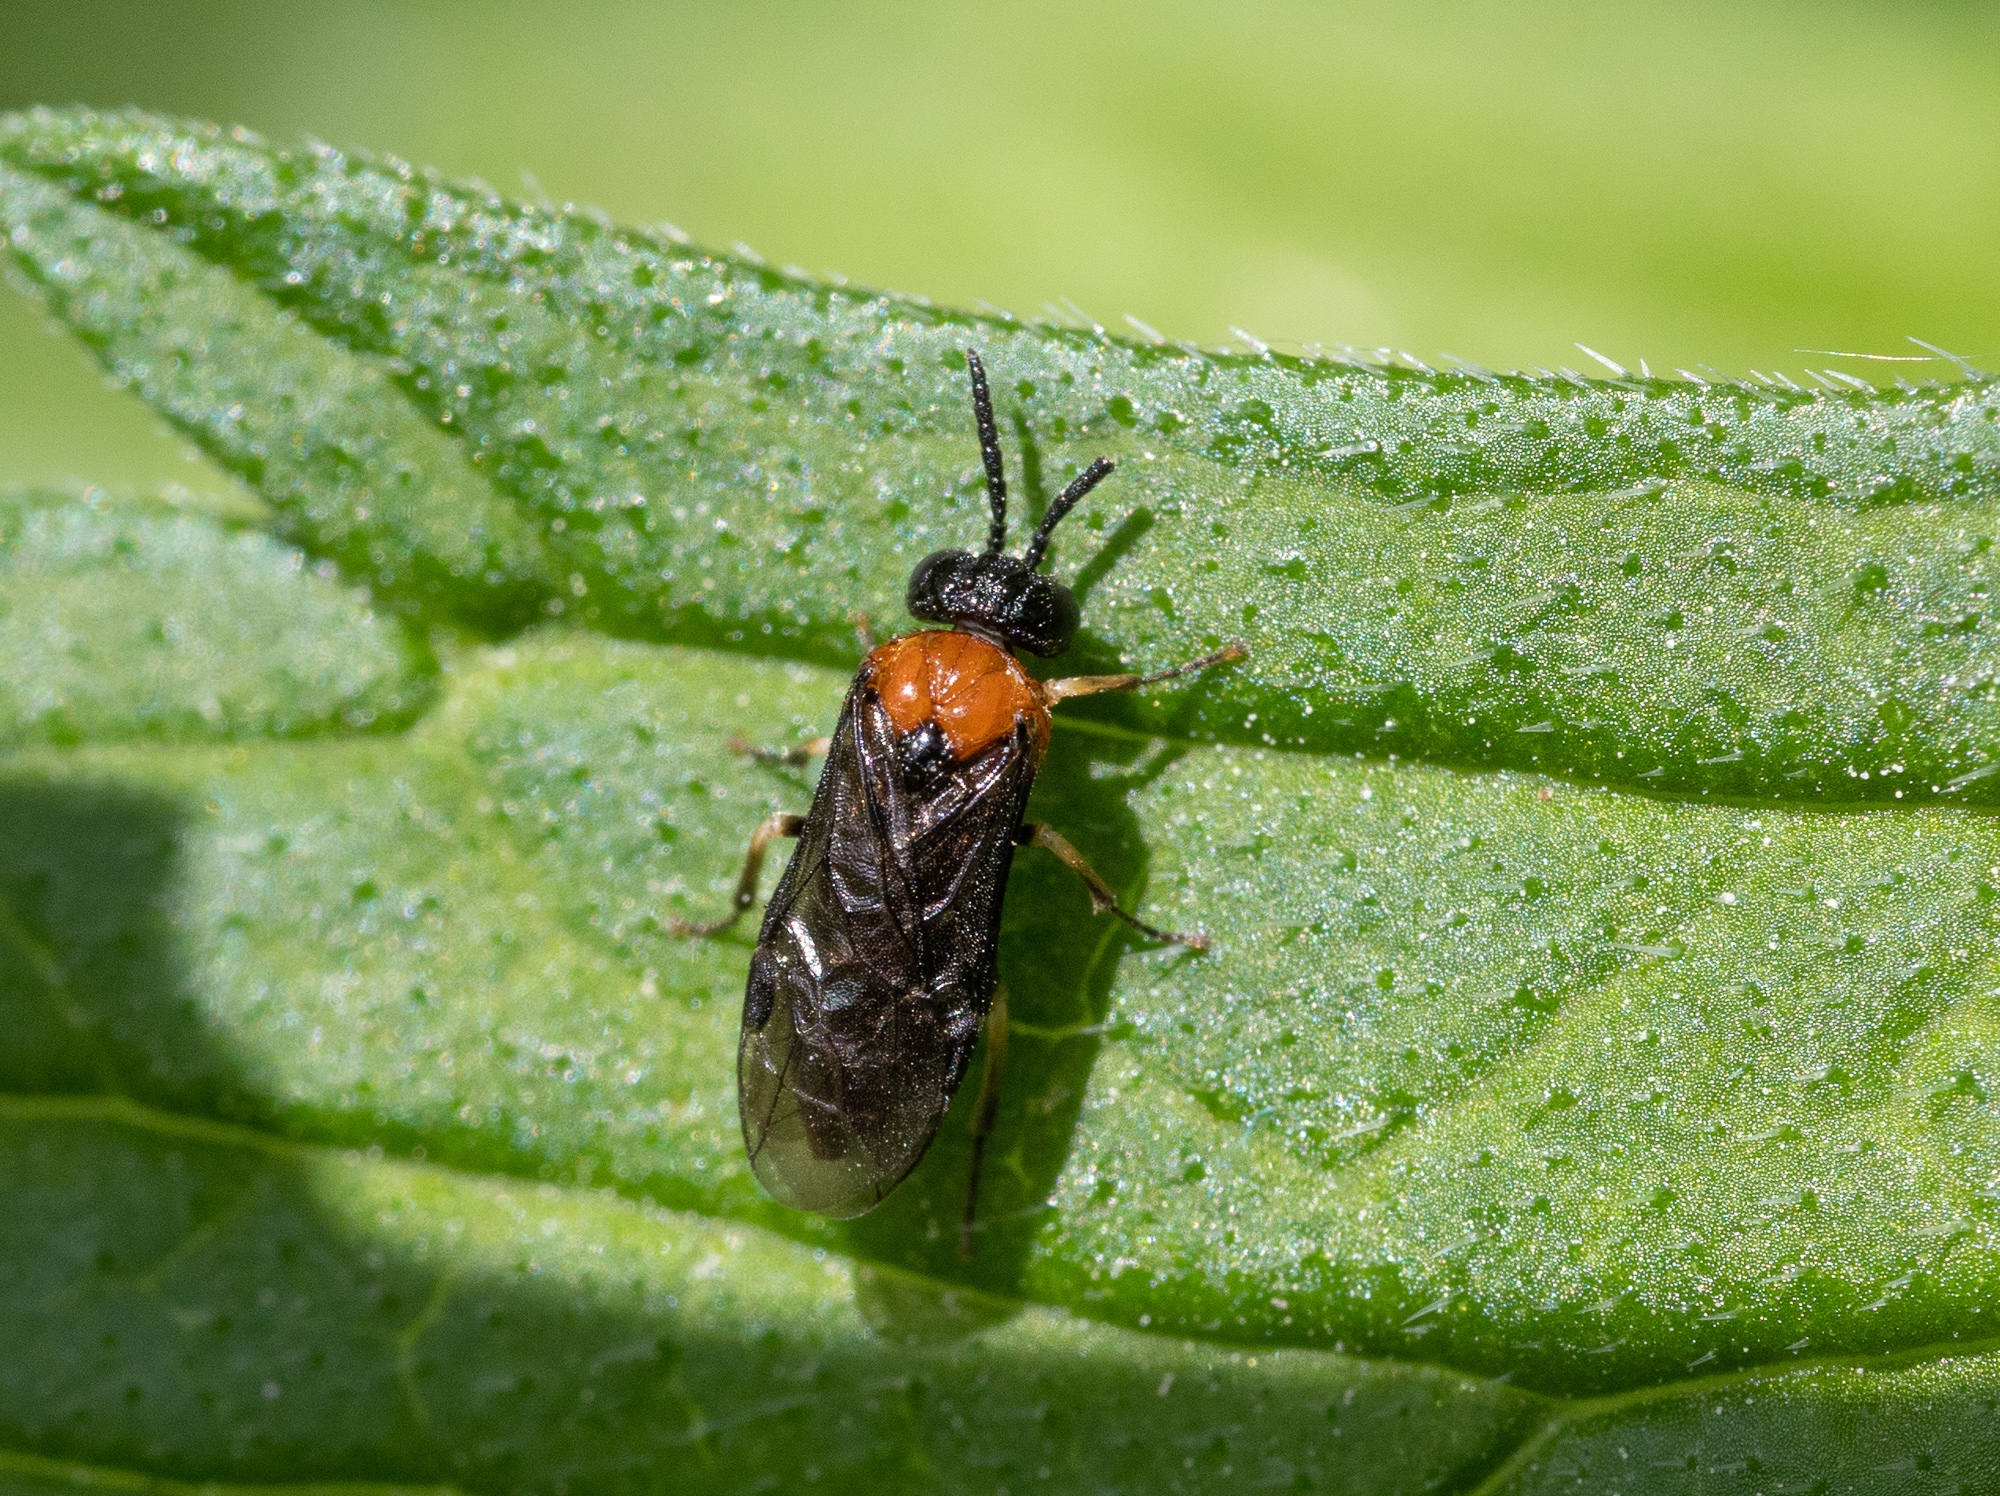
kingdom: Animalia
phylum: Arthropoda
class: Insecta
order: Hymenoptera
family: Tenthredinidae
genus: Eutomostethus
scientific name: Eutomostethus ephippium
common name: Tenthredid wasp
